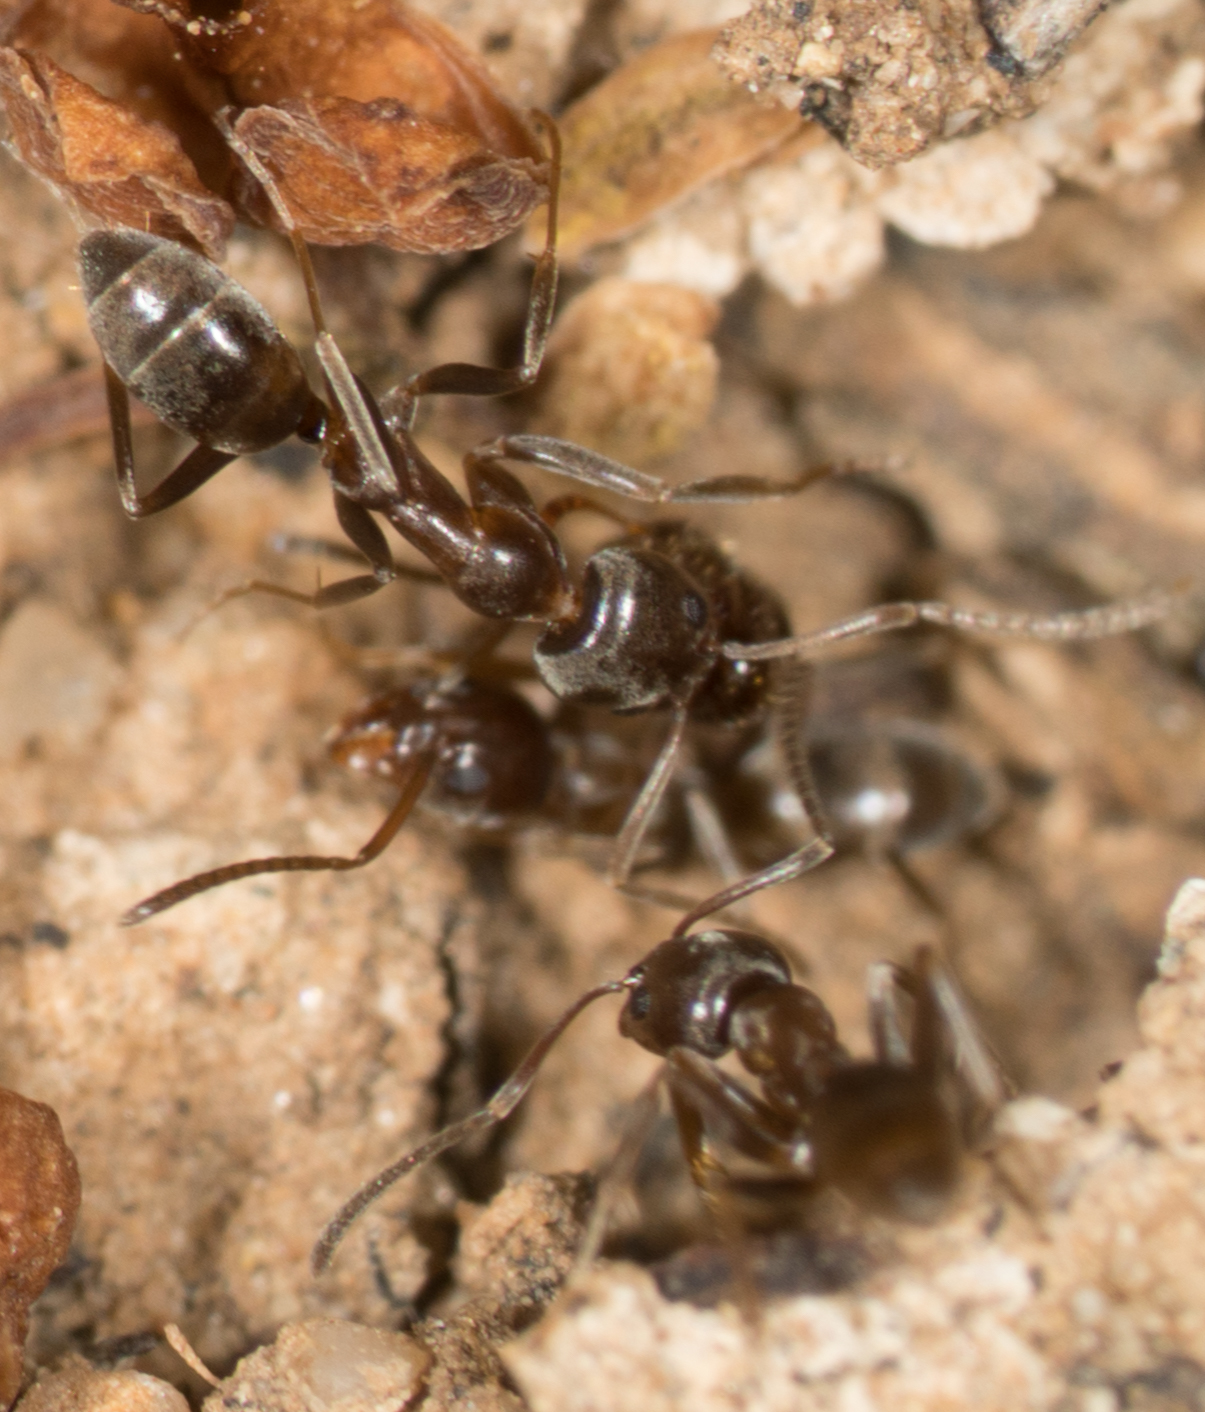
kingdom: Animalia
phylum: Arthropoda
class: Insecta
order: Hymenoptera
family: Formicidae
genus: Linepithema
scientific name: Linepithema humile
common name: Argentine ant
